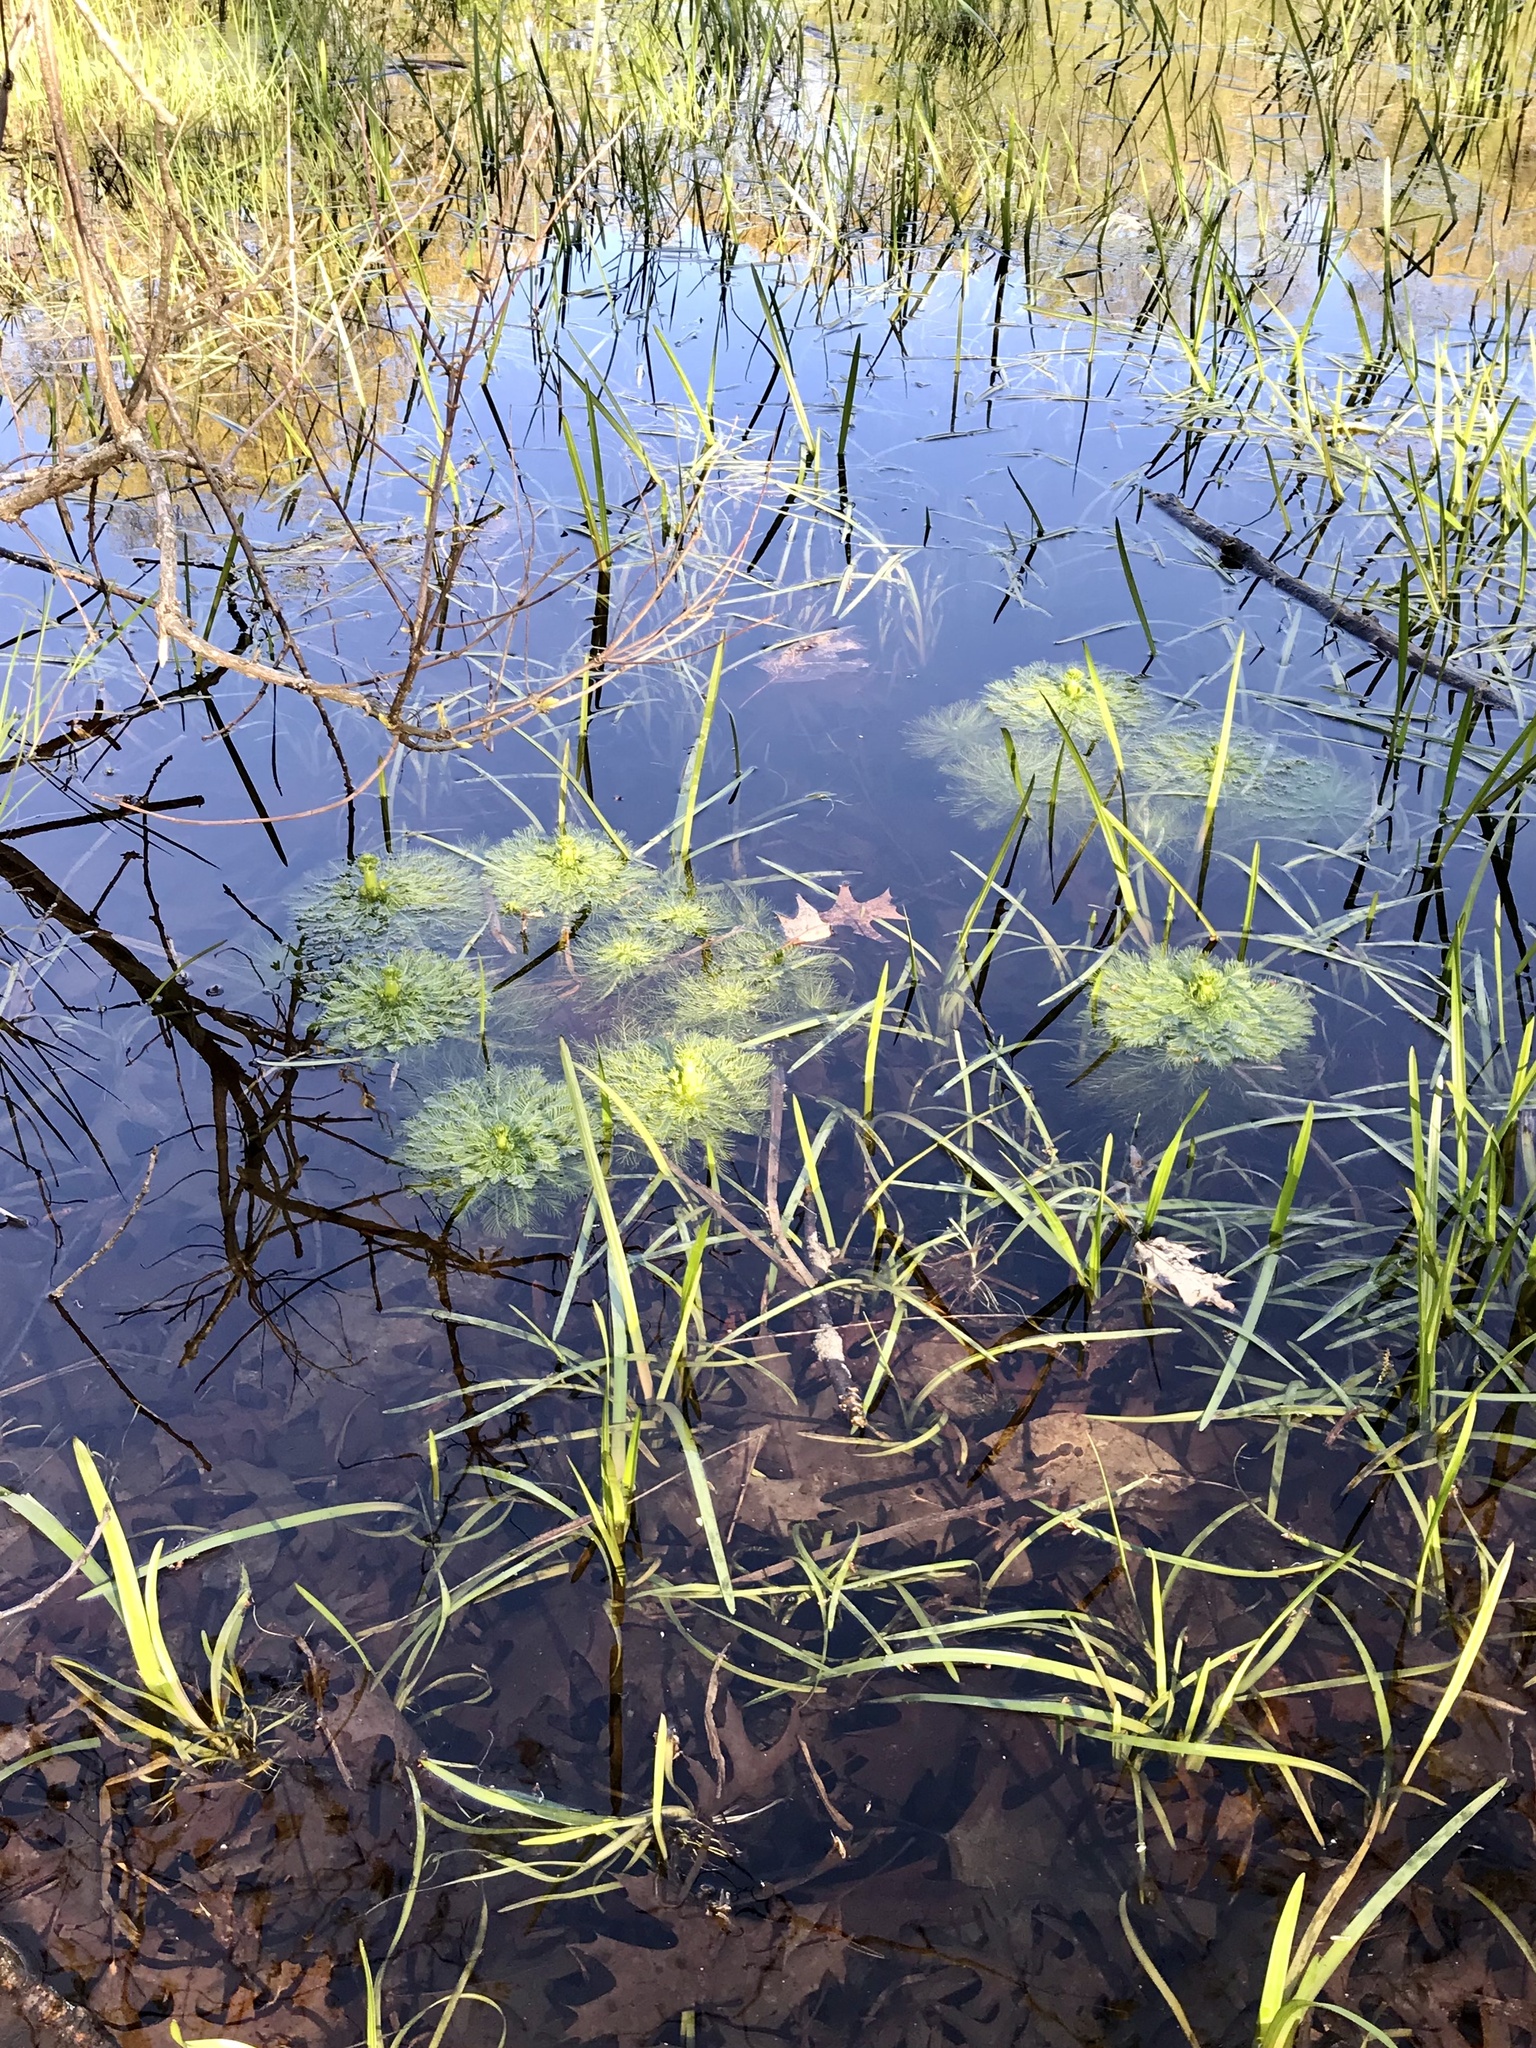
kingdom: Plantae
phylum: Tracheophyta
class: Magnoliopsida
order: Ericales
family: Primulaceae
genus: Hottonia
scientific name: Hottonia inflata
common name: American featherfoil
